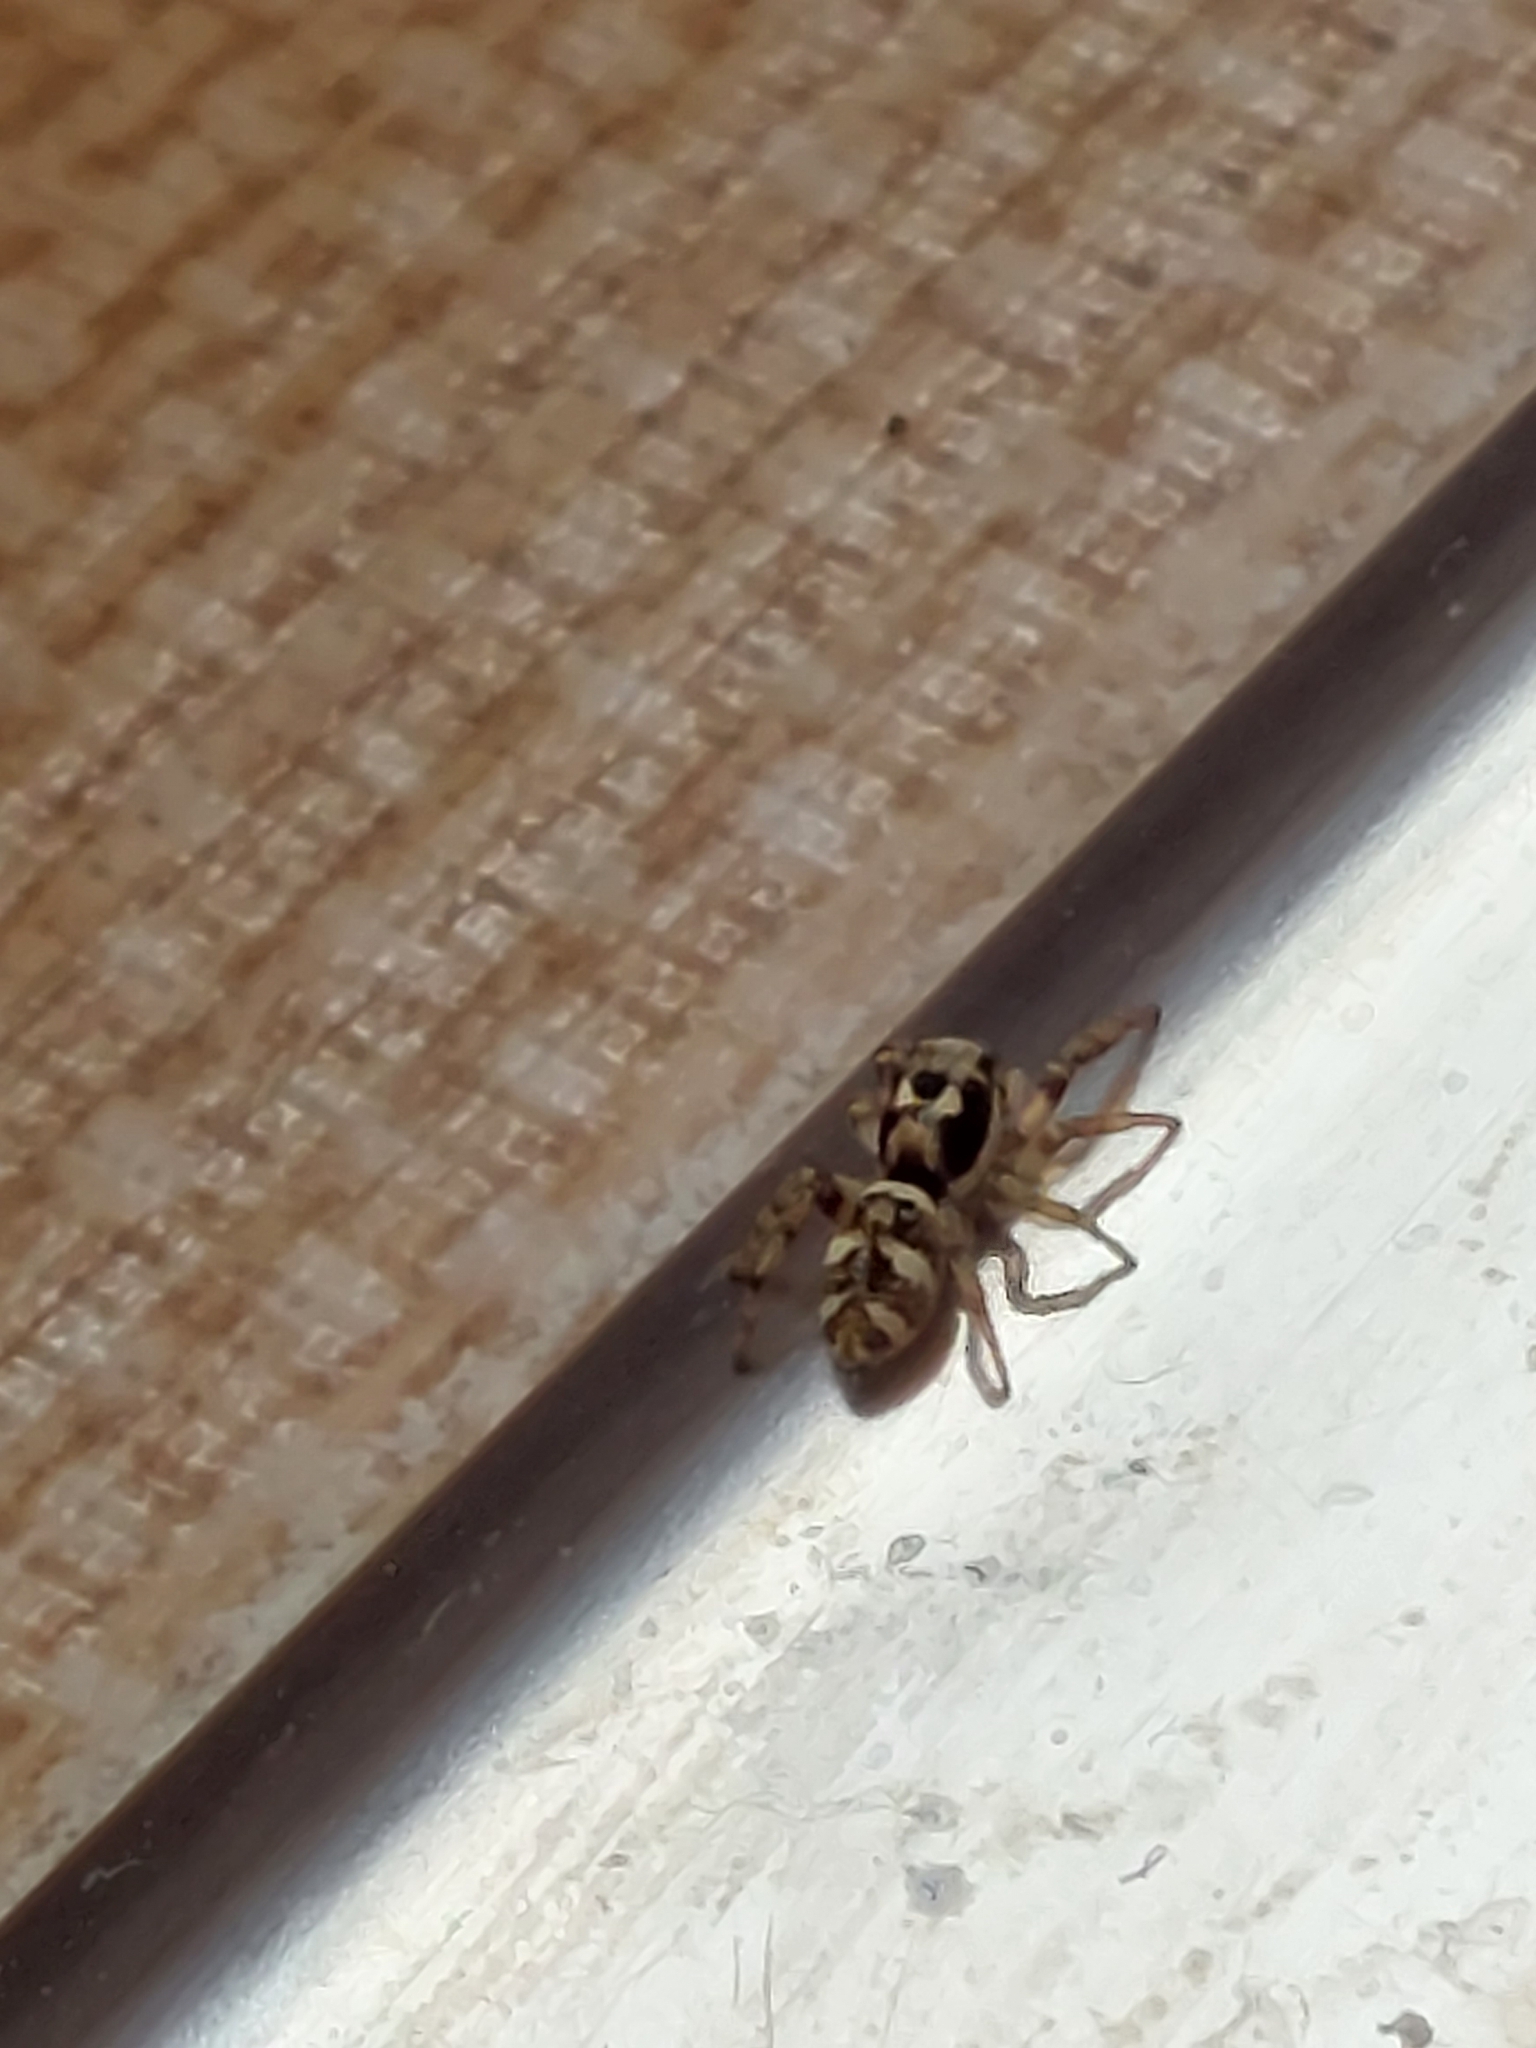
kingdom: Animalia
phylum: Arthropoda
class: Arachnida
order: Araneae
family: Salticidae
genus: Salticus
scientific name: Salticus scenicus
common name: Zebra jumper
